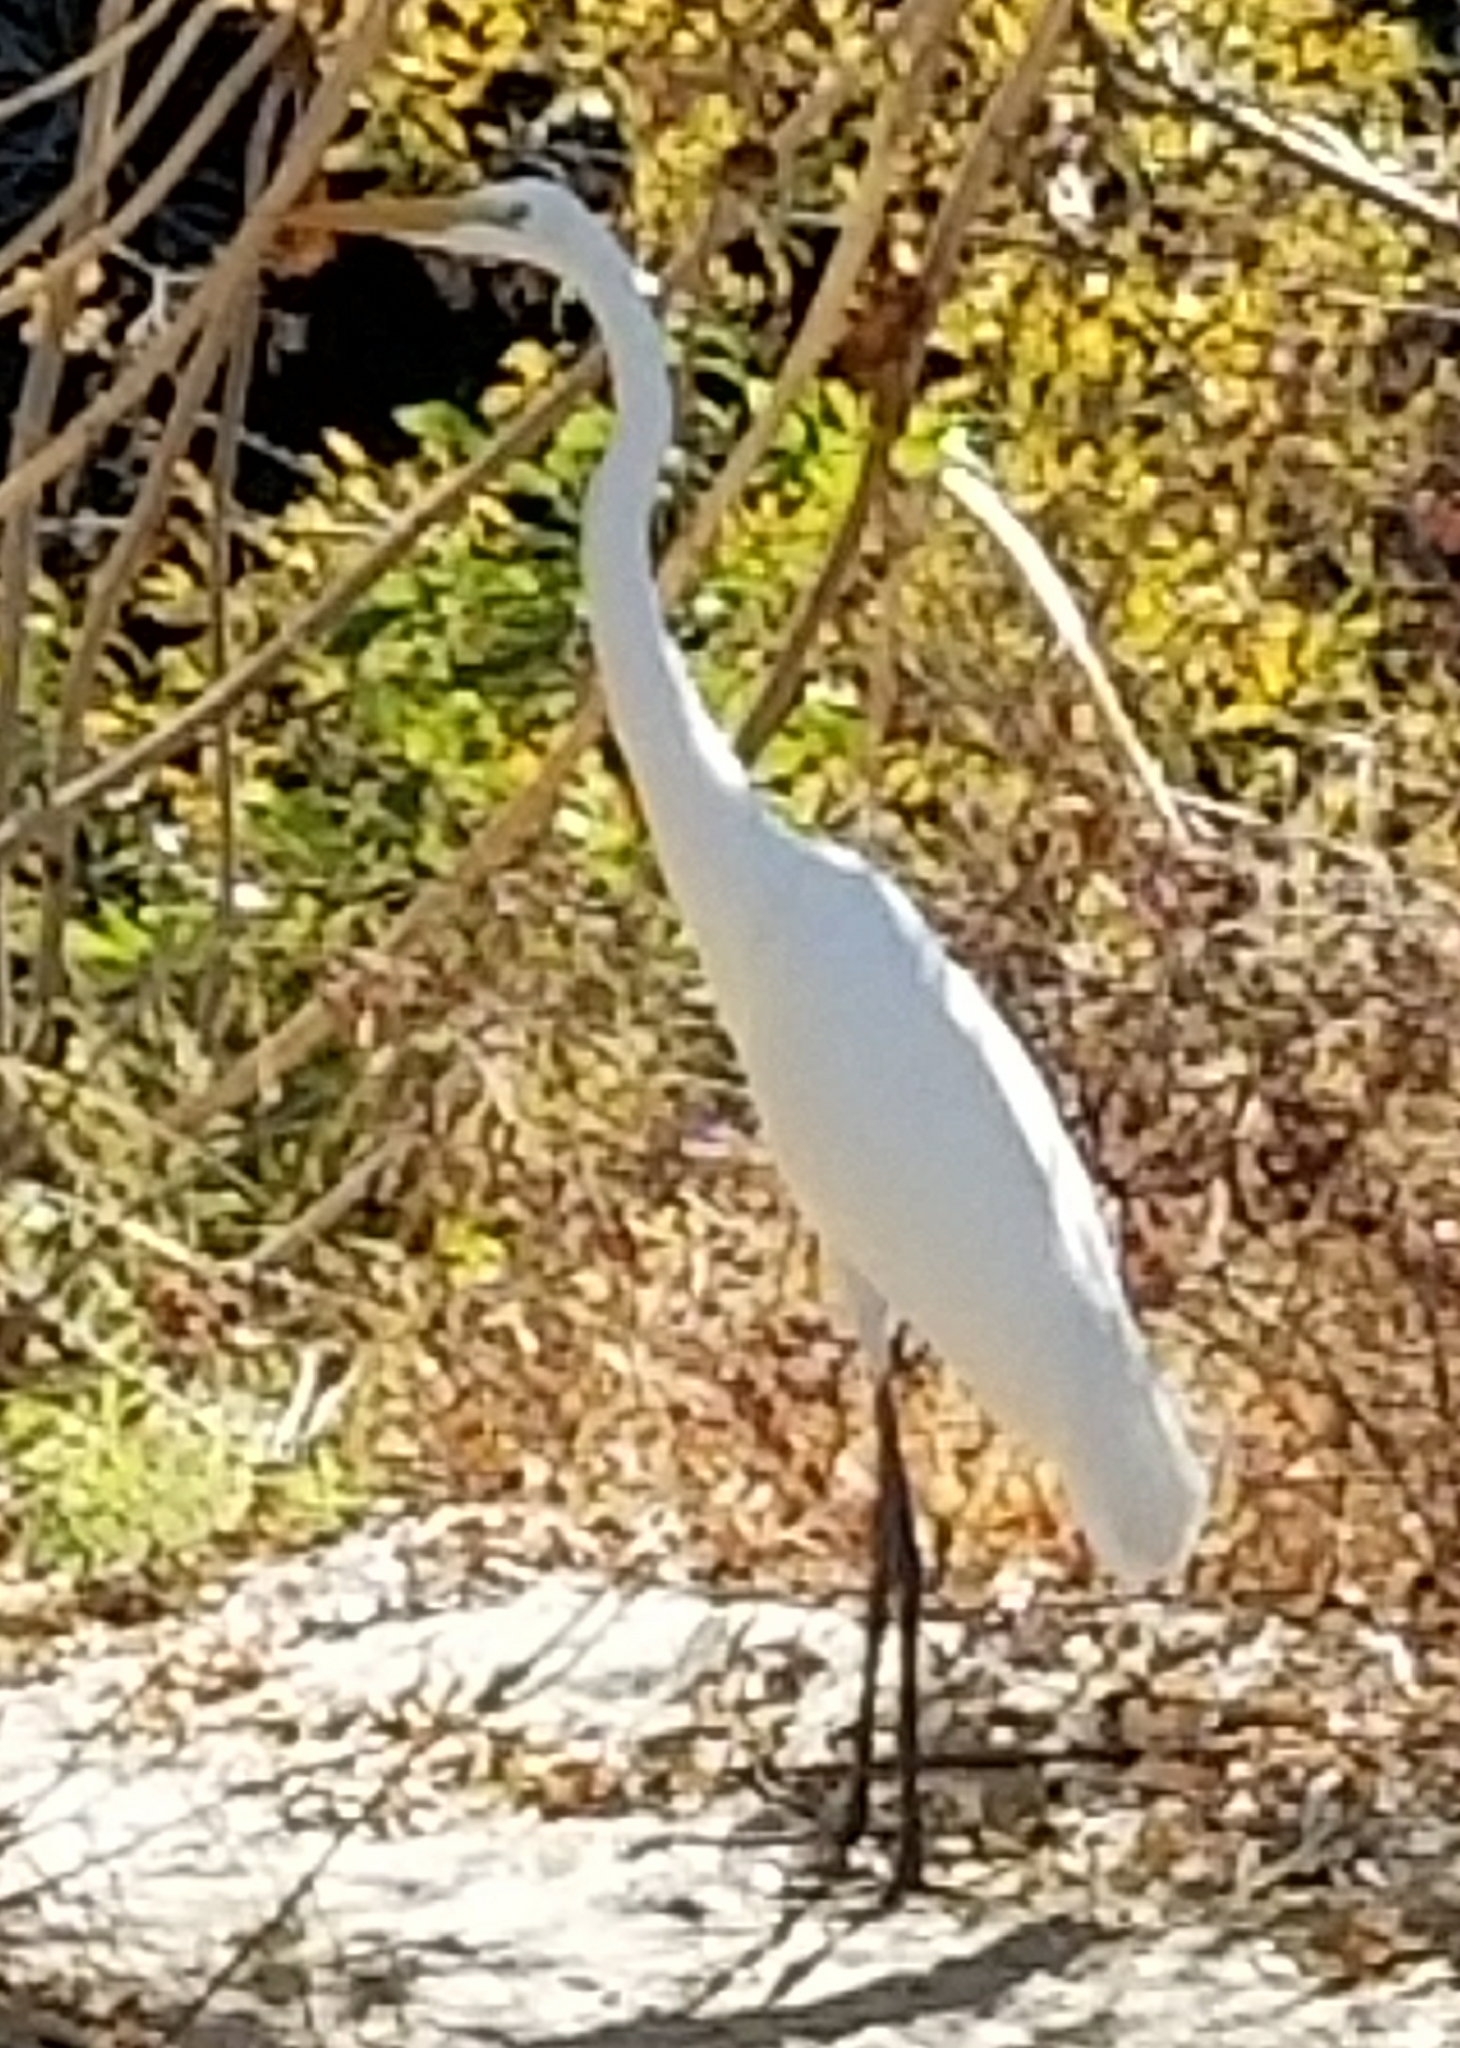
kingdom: Animalia
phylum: Chordata
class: Aves
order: Pelecaniformes
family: Ardeidae
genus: Ardea
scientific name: Ardea alba
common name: Great egret
